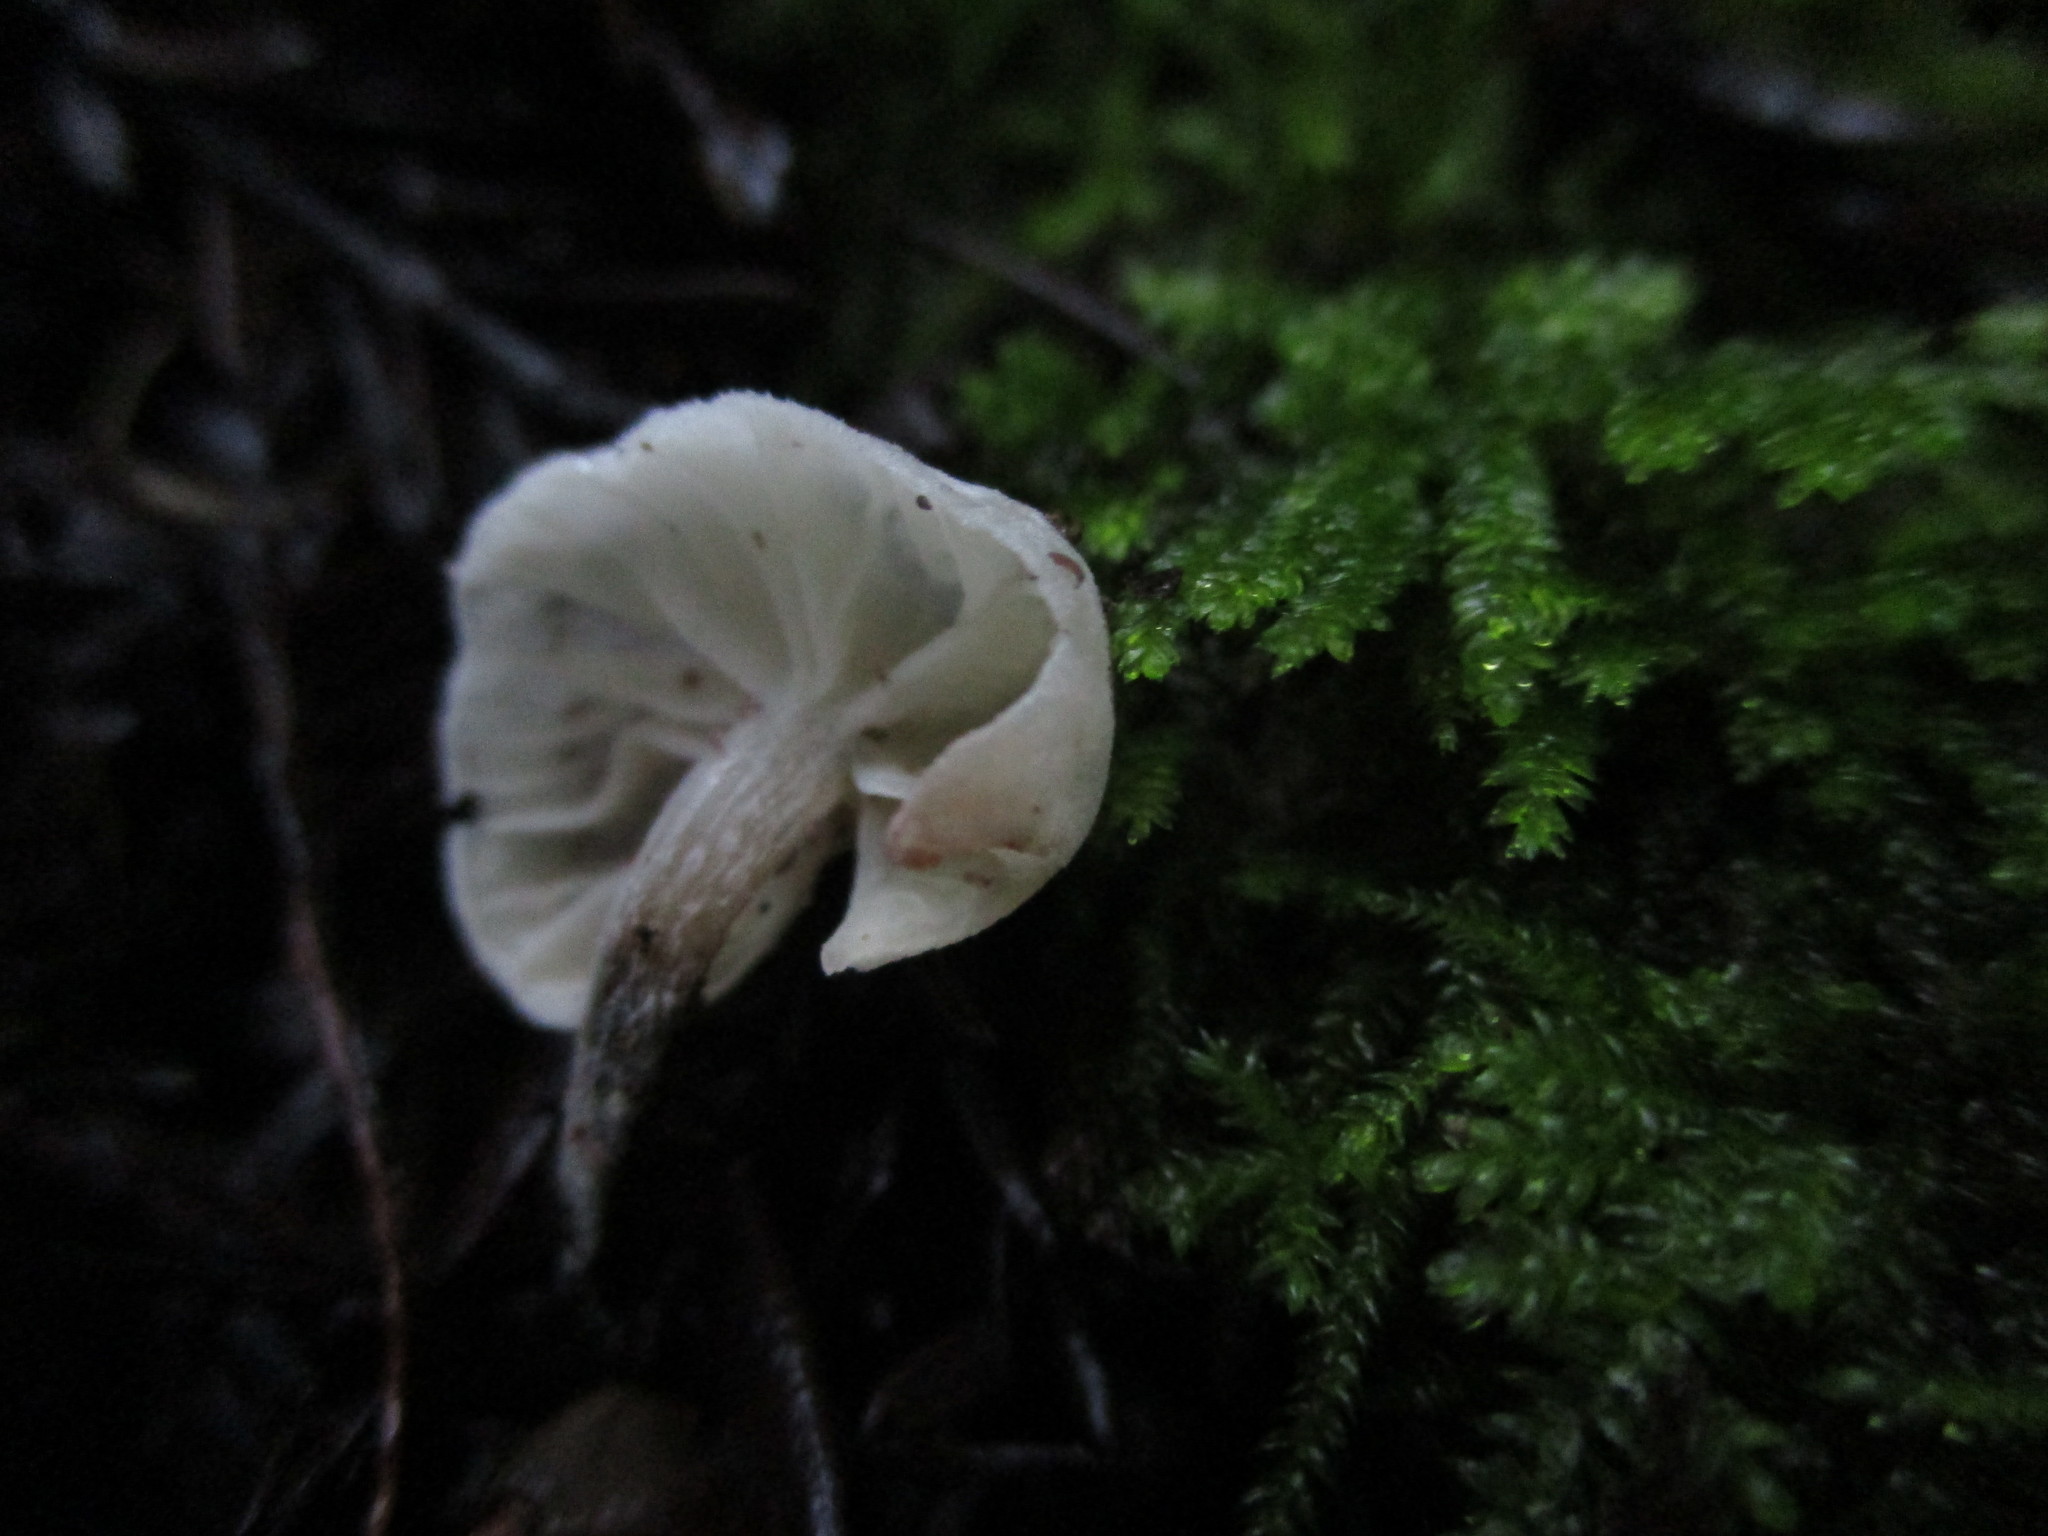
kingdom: Fungi
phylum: Basidiomycota
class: Agaricomycetes
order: Agaricales
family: Omphalotaceae
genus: Marasmiellus
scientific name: Marasmiellus candidus
